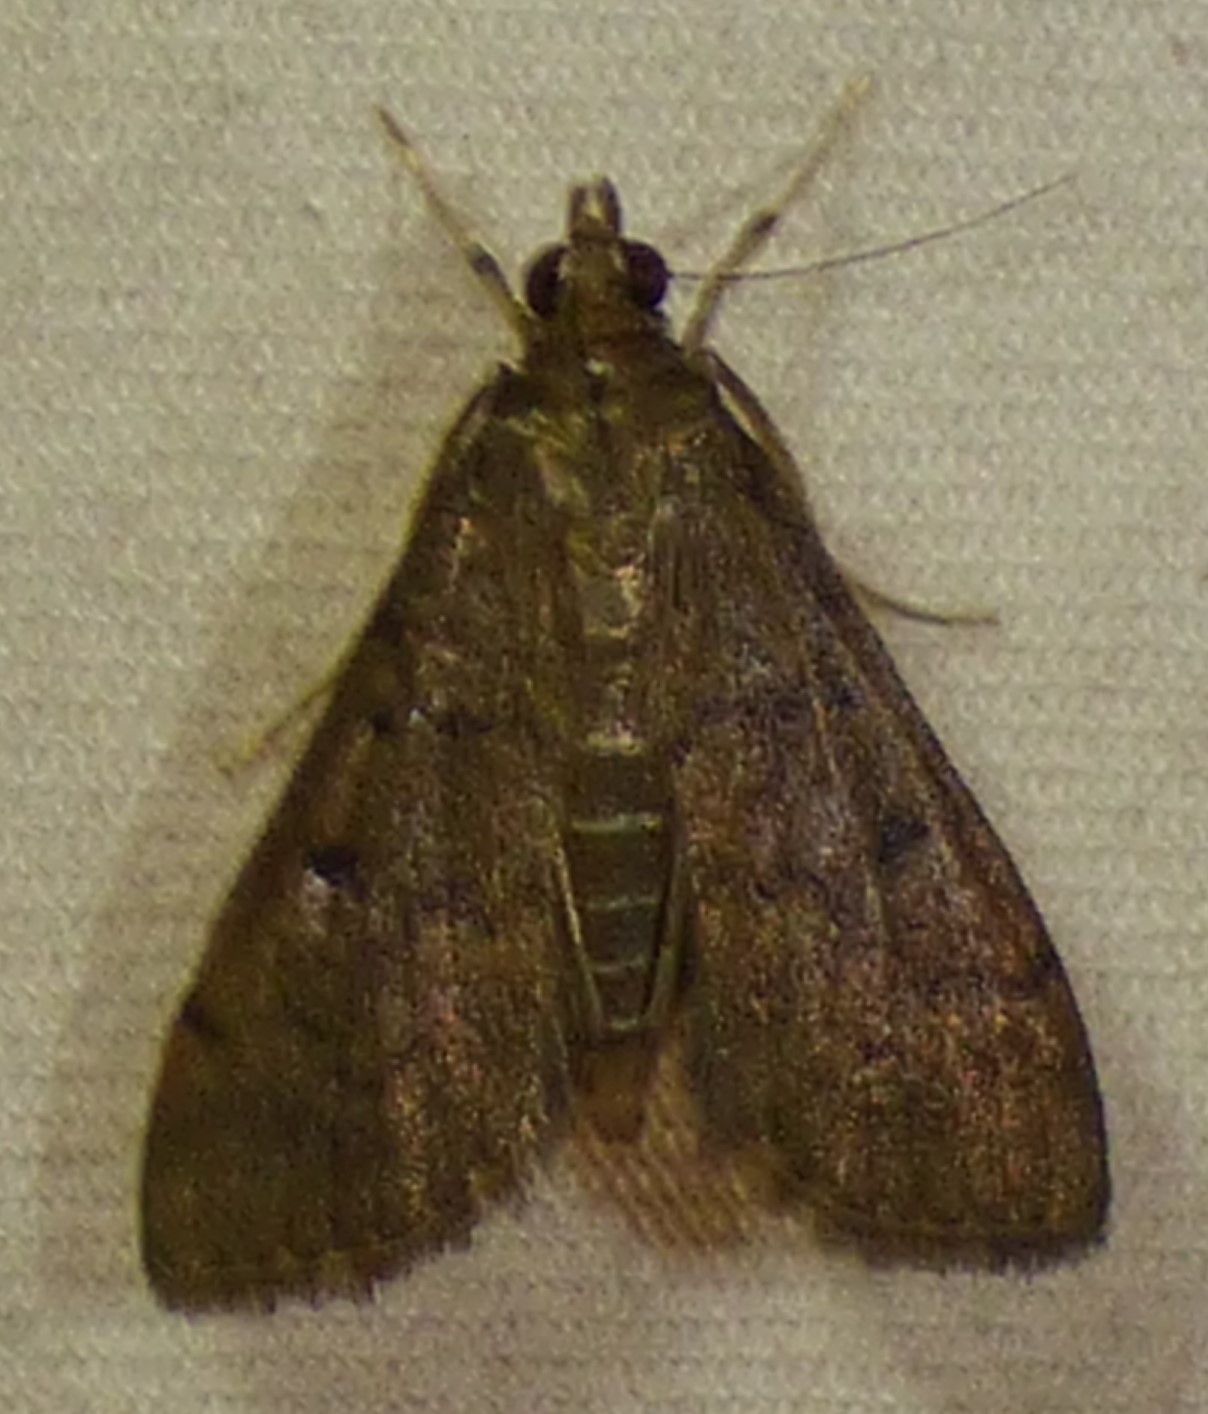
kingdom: Animalia
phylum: Arthropoda
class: Insecta
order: Lepidoptera
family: Crambidae
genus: Herpetogramma
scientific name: Herpetogramma phaeopteralis
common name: Dusky herpetogramma moth
